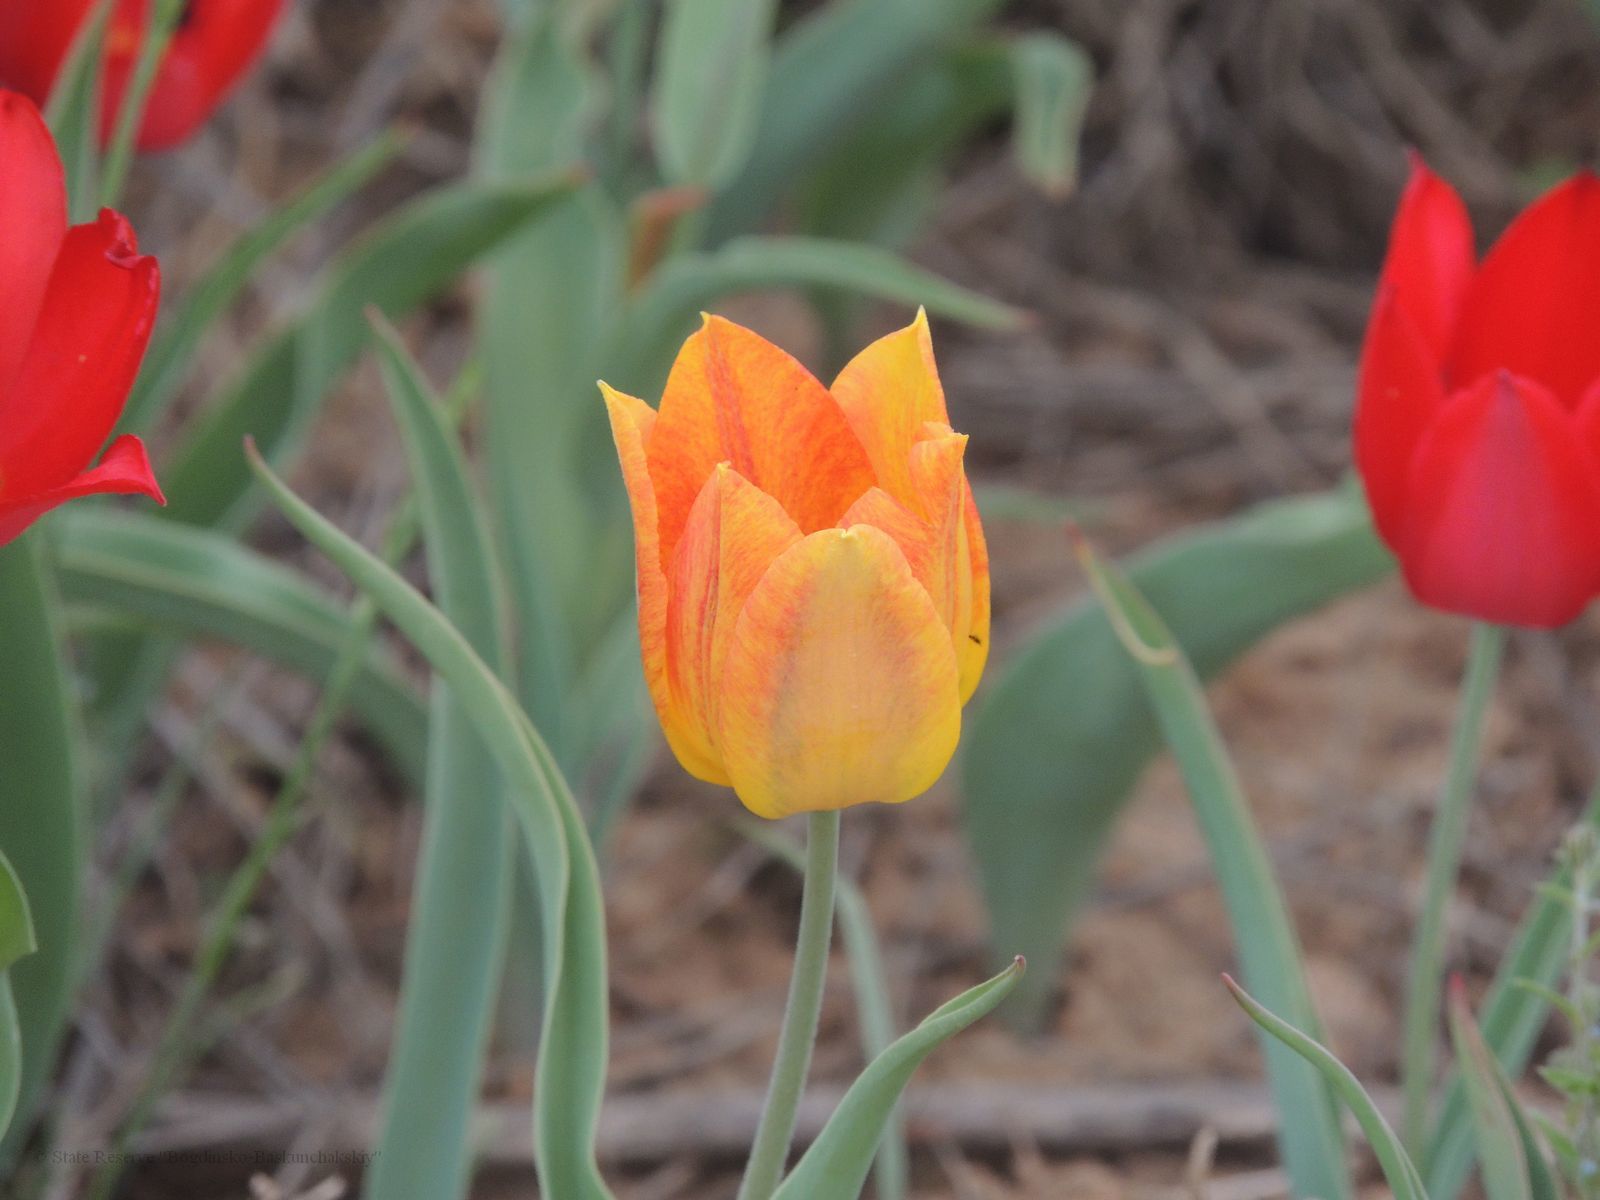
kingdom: Plantae
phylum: Tracheophyta
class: Liliopsida
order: Liliales
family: Liliaceae
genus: Tulipa
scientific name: Tulipa suaveolens
